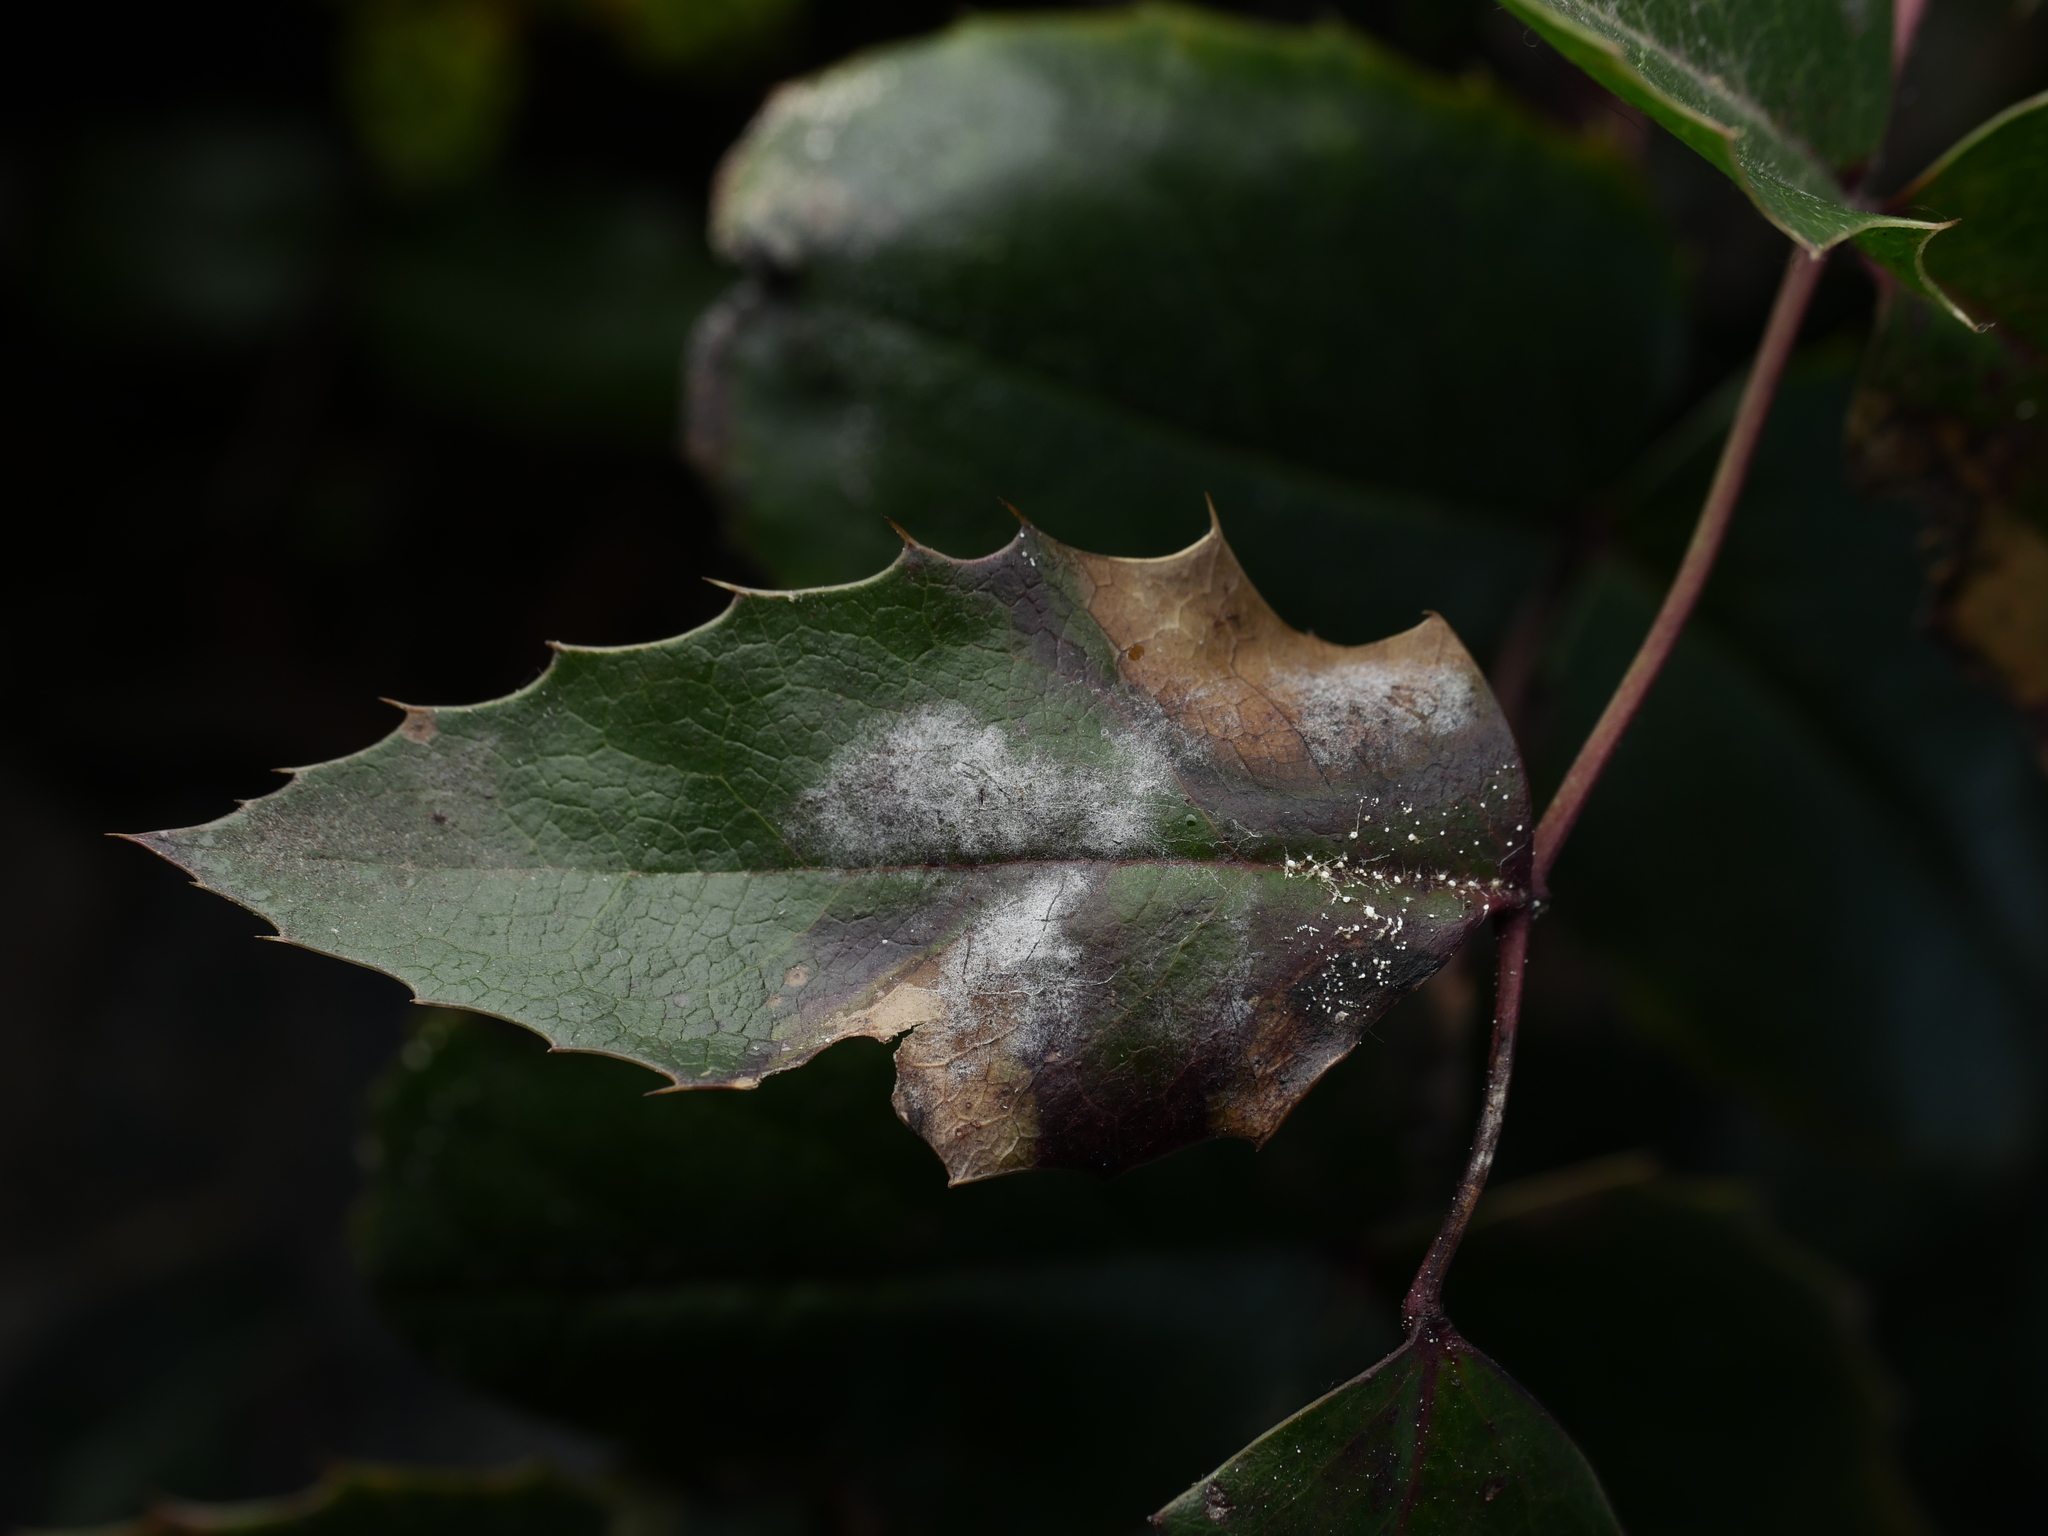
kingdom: Plantae
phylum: Tracheophyta
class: Magnoliopsida
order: Ranunculales
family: Berberidaceae
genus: Mahonia
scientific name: Mahonia aquifolium
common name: Oregon-grape
